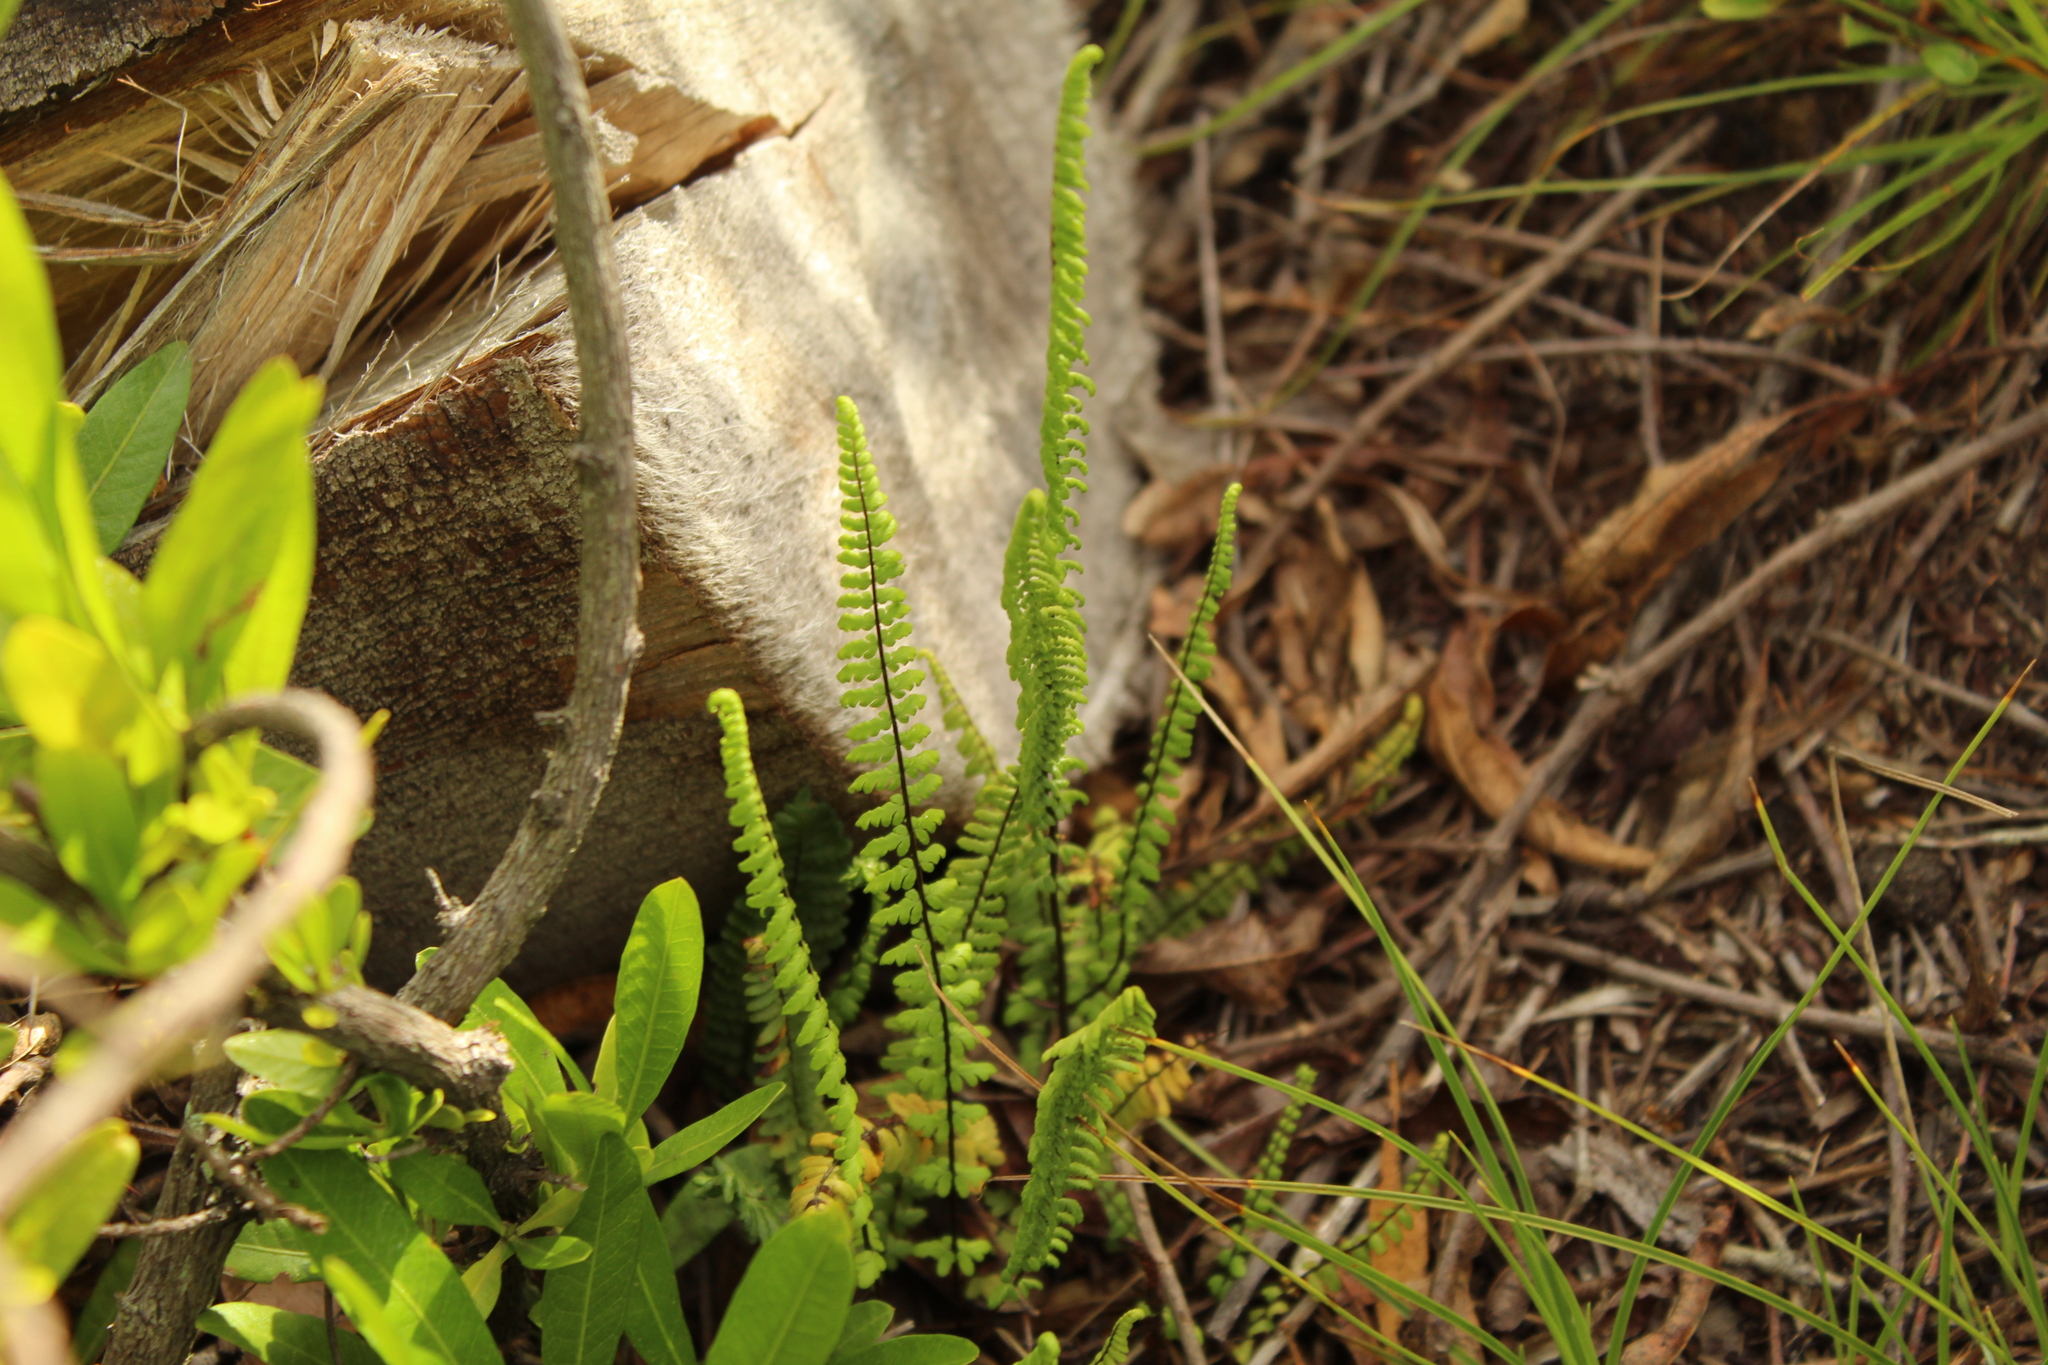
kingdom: Plantae
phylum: Tracheophyta
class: Polypodiopsida
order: Polypodiales
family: Pteridaceae
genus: Adiantopsis
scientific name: Adiantopsis lindigii
